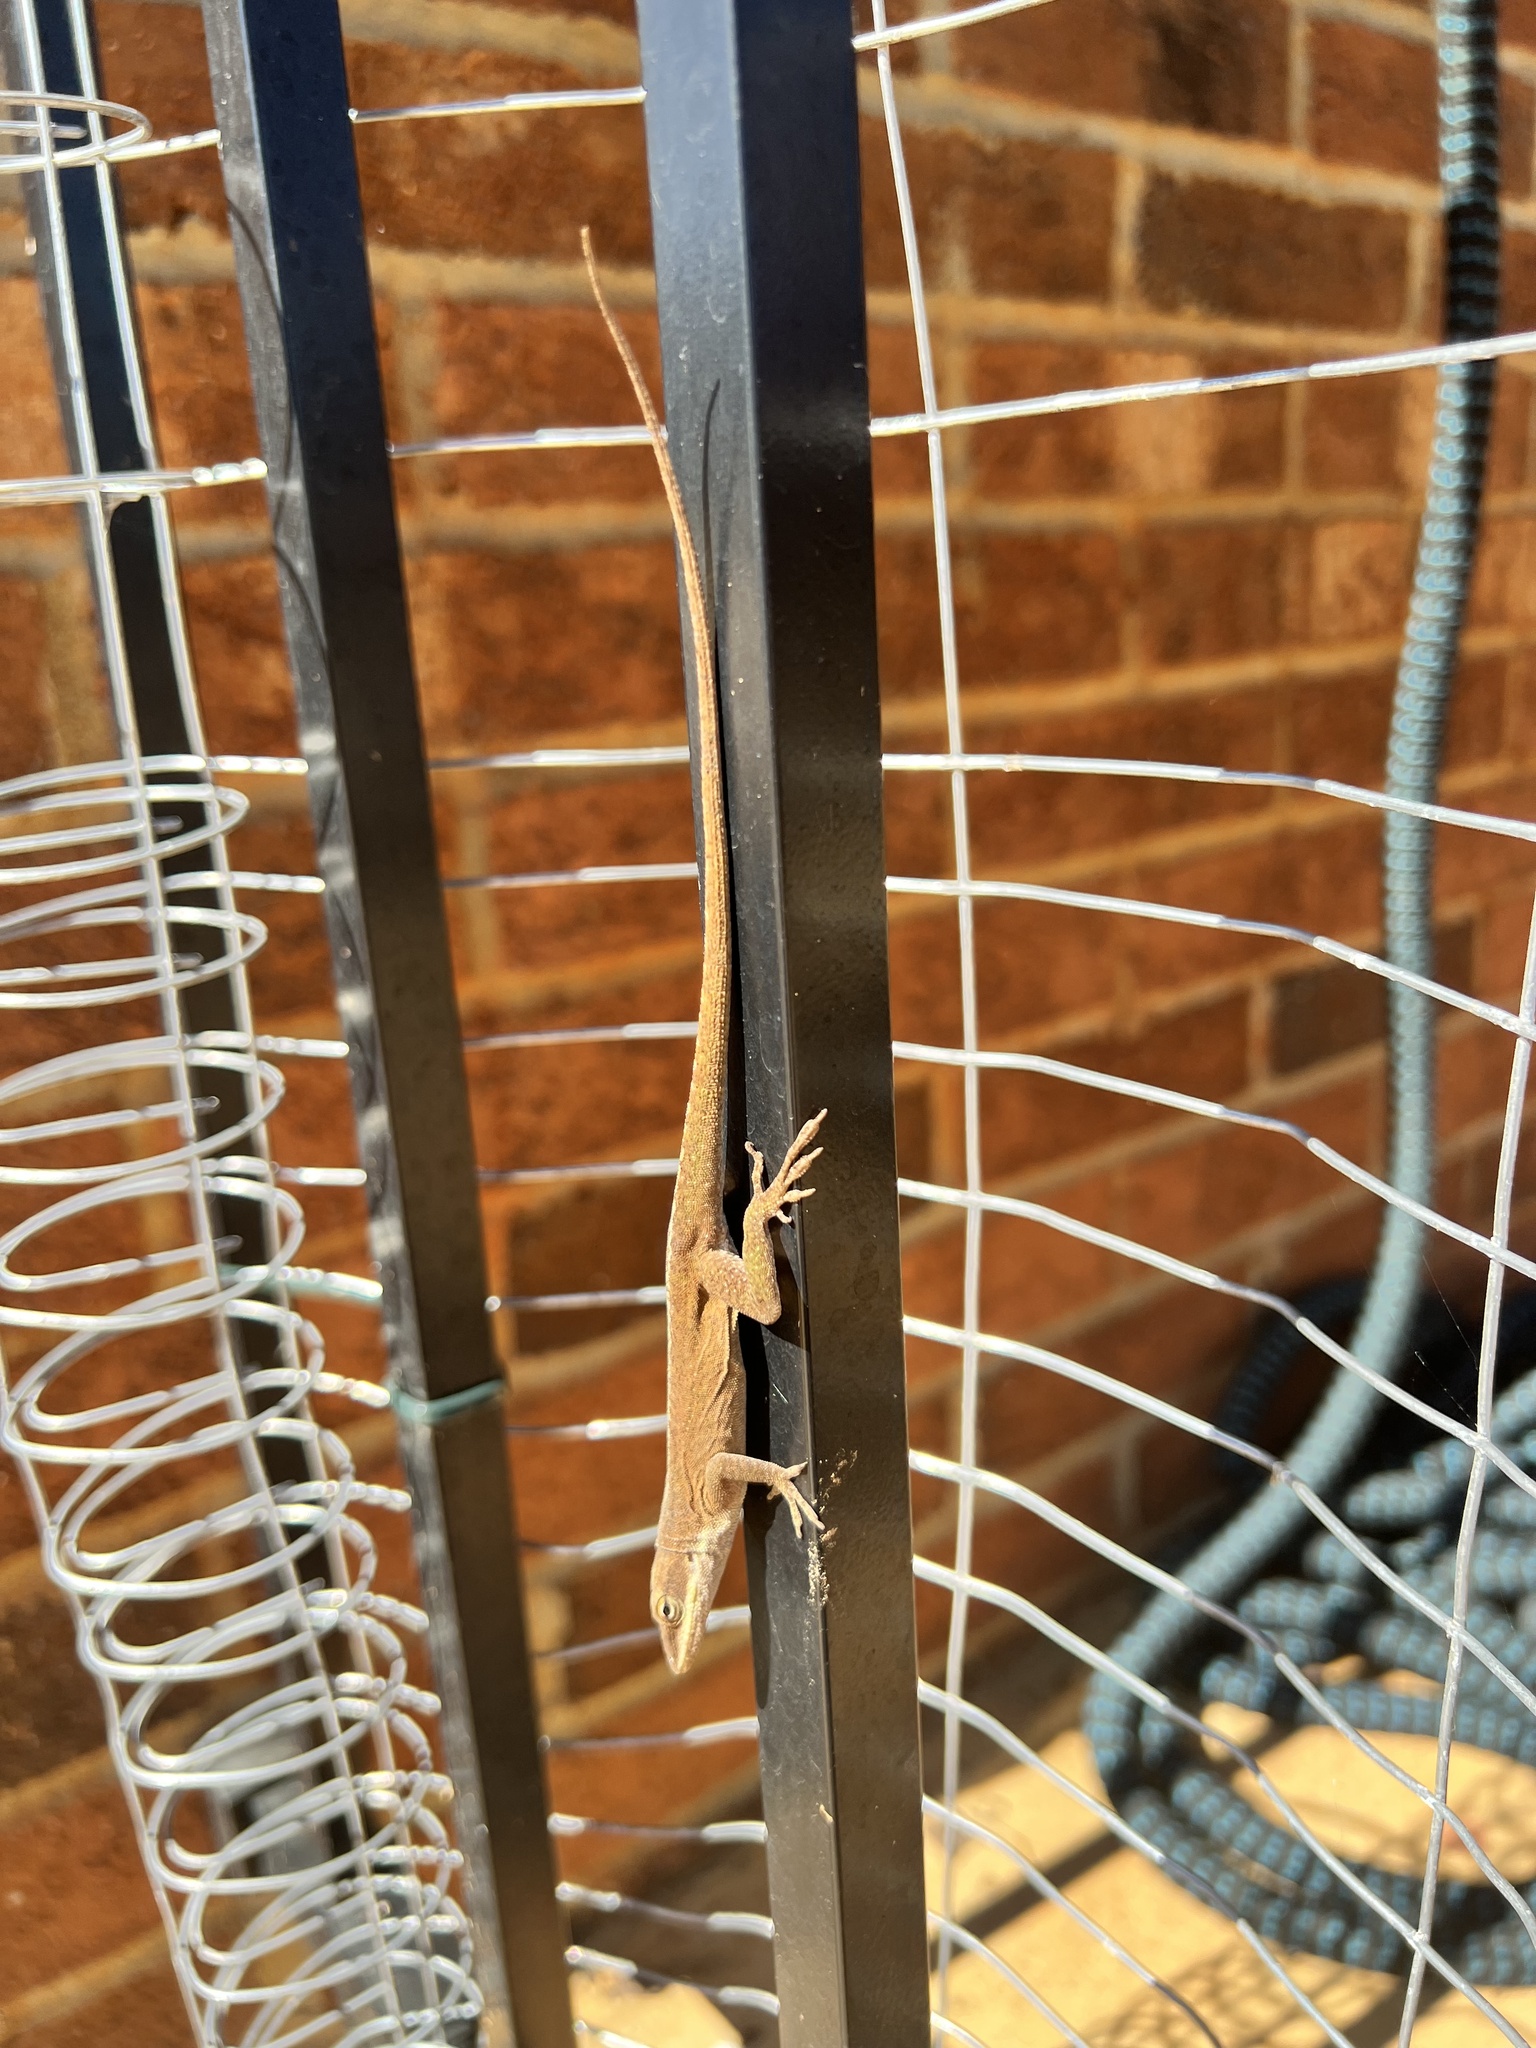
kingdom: Animalia
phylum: Chordata
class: Squamata
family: Dactyloidae
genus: Anolis
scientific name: Anolis carolinensis
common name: Green anole
